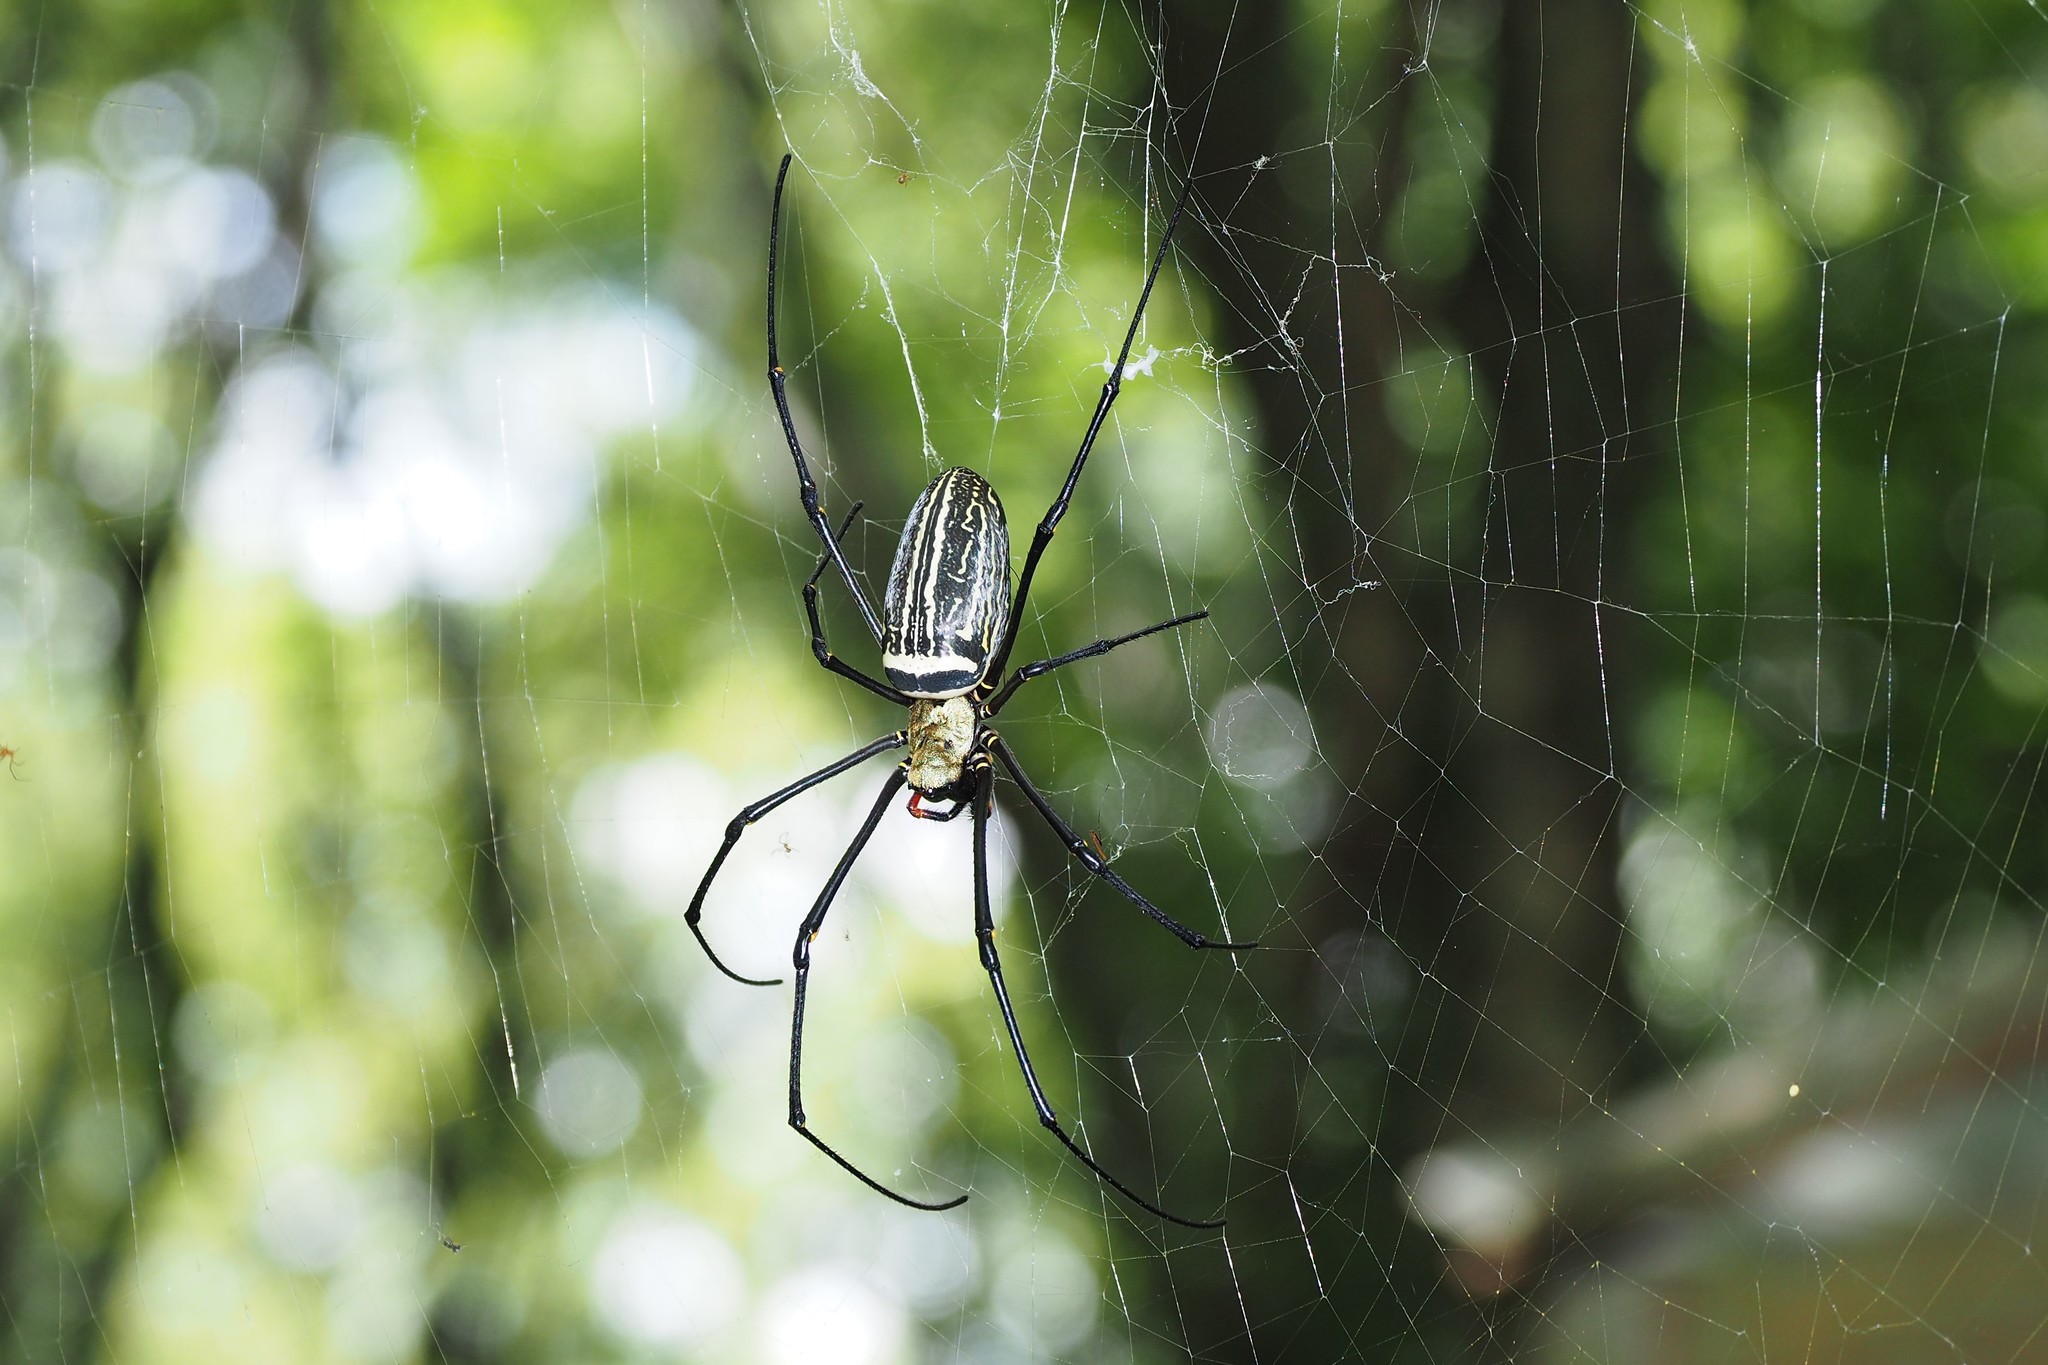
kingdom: Animalia
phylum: Arthropoda
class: Arachnida
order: Araneae
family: Araneidae
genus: Nephila
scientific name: Nephila pilipes
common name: Giant golden orb weaver
